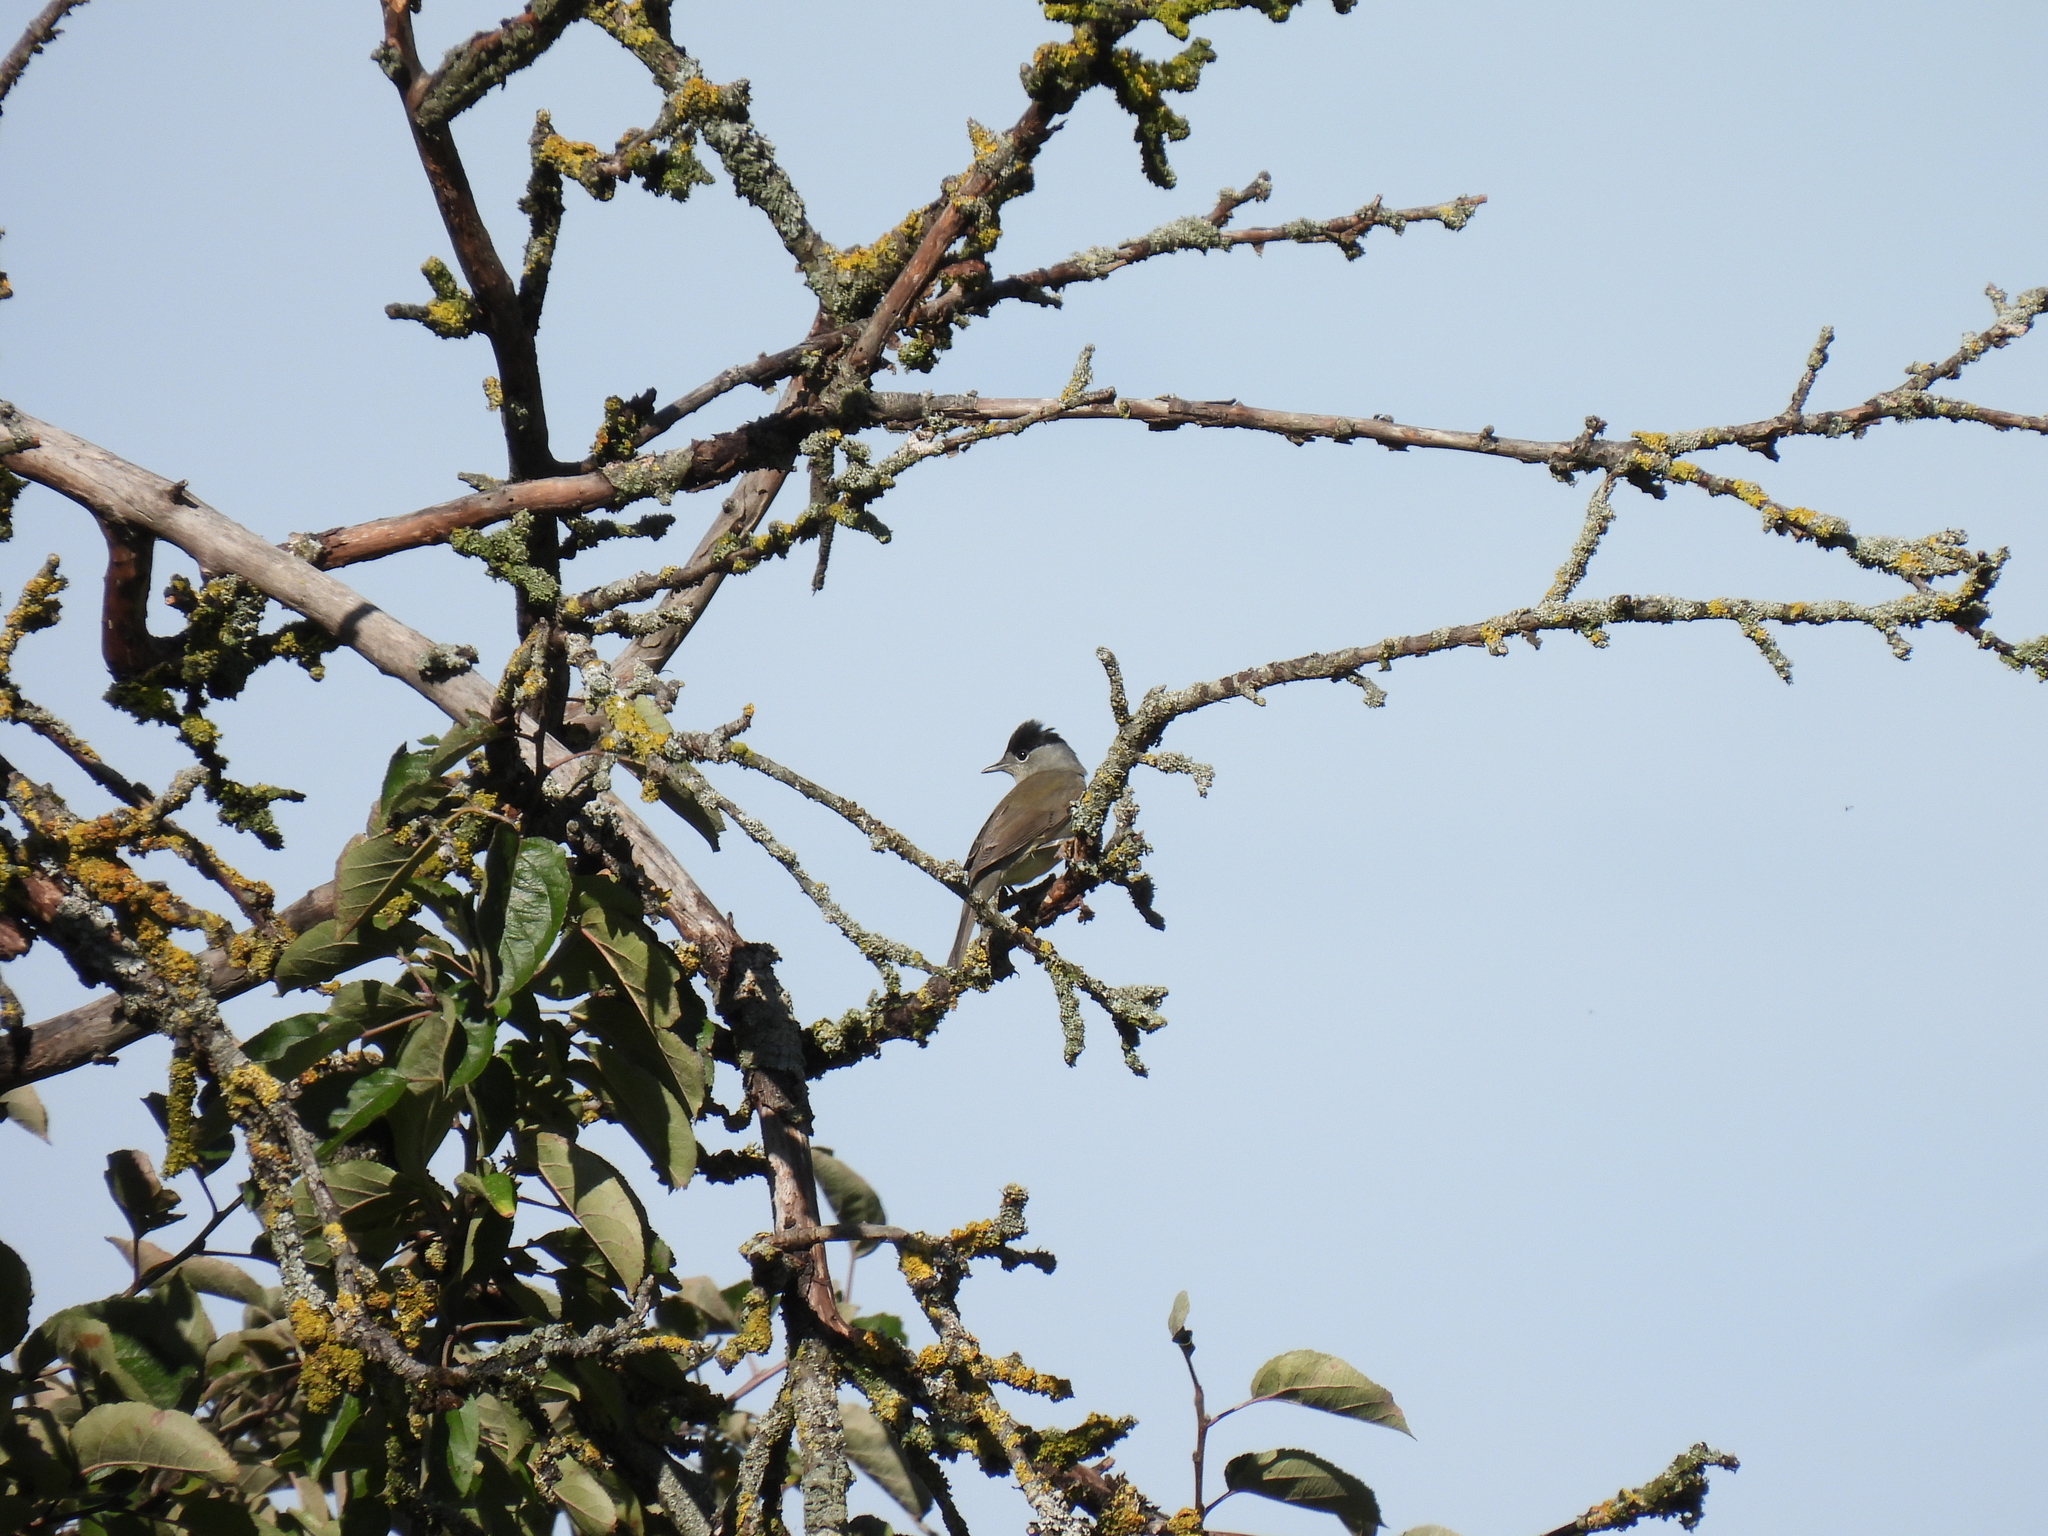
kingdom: Animalia
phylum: Chordata
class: Aves
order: Passeriformes
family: Sylviidae
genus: Sylvia
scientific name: Sylvia atricapilla
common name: Eurasian blackcap
